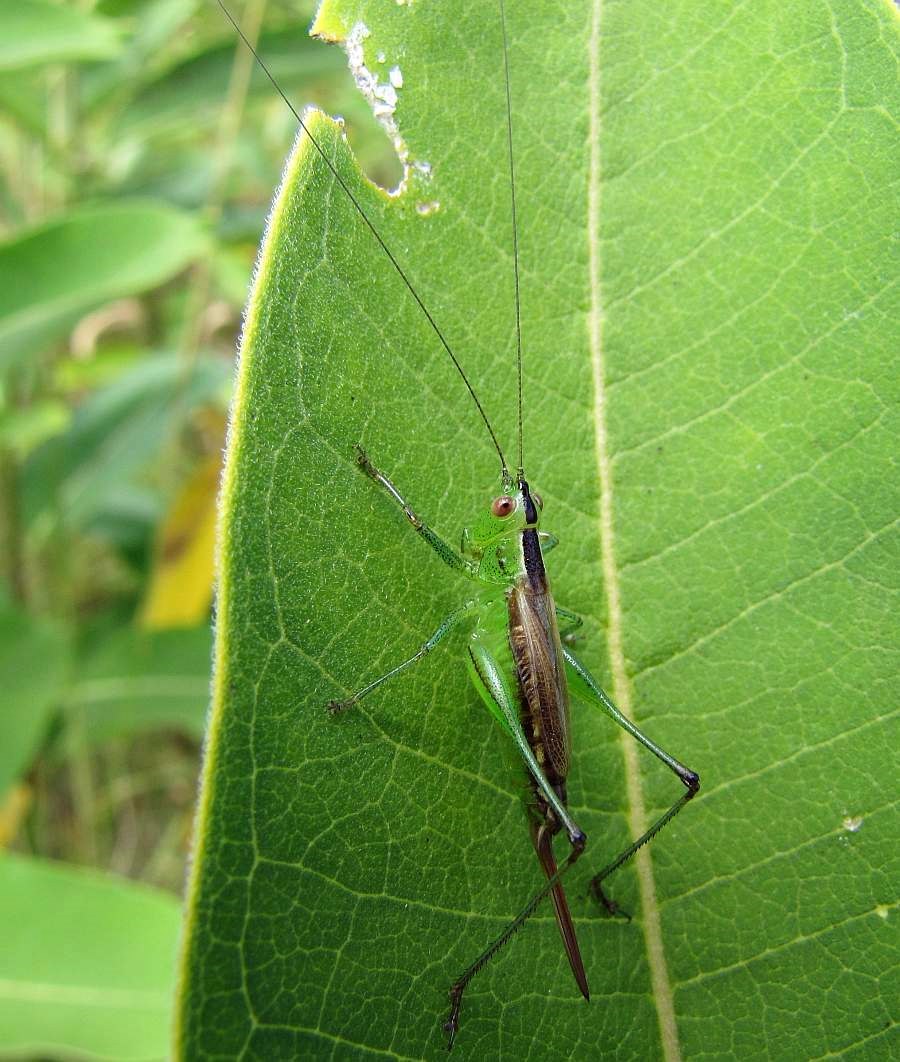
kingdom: Animalia
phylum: Arthropoda
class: Insecta
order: Orthoptera
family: Tettigoniidae
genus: Conocephalus
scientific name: Conocephalus brevipennis
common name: Short-winged meadow katydid
